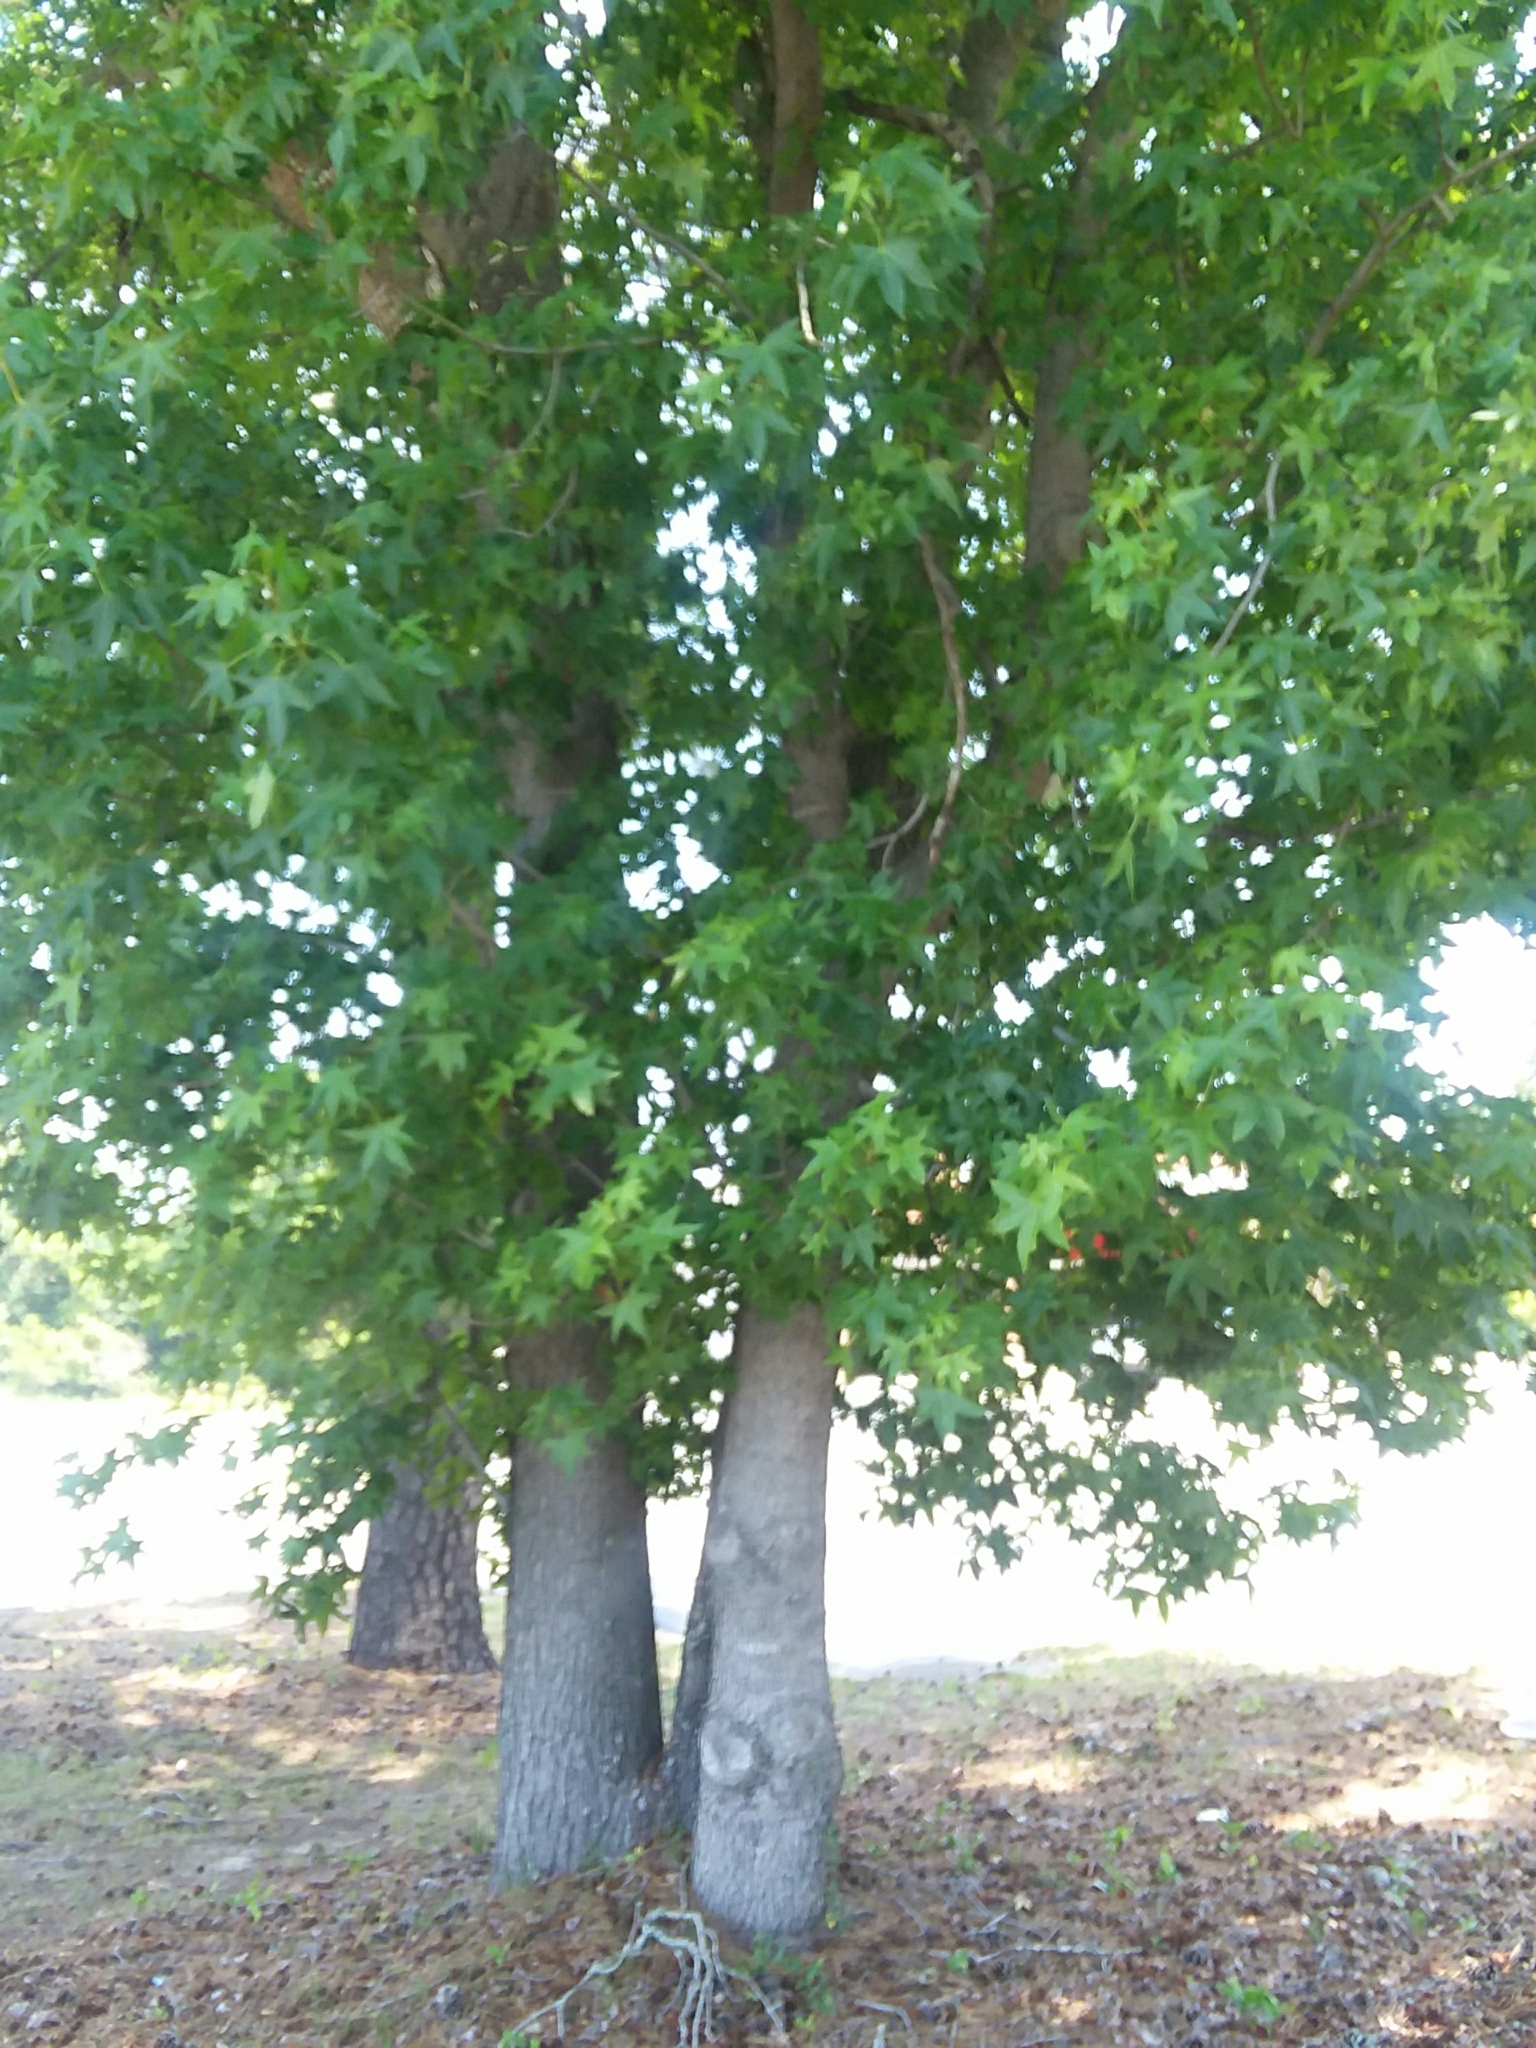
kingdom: Plantae
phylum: Tracheophyta
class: Magnoliopsida
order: Saxifragales
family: Altingiaceae
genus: Liquidambar
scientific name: Liquidambar styraciflua
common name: Sweet gum
